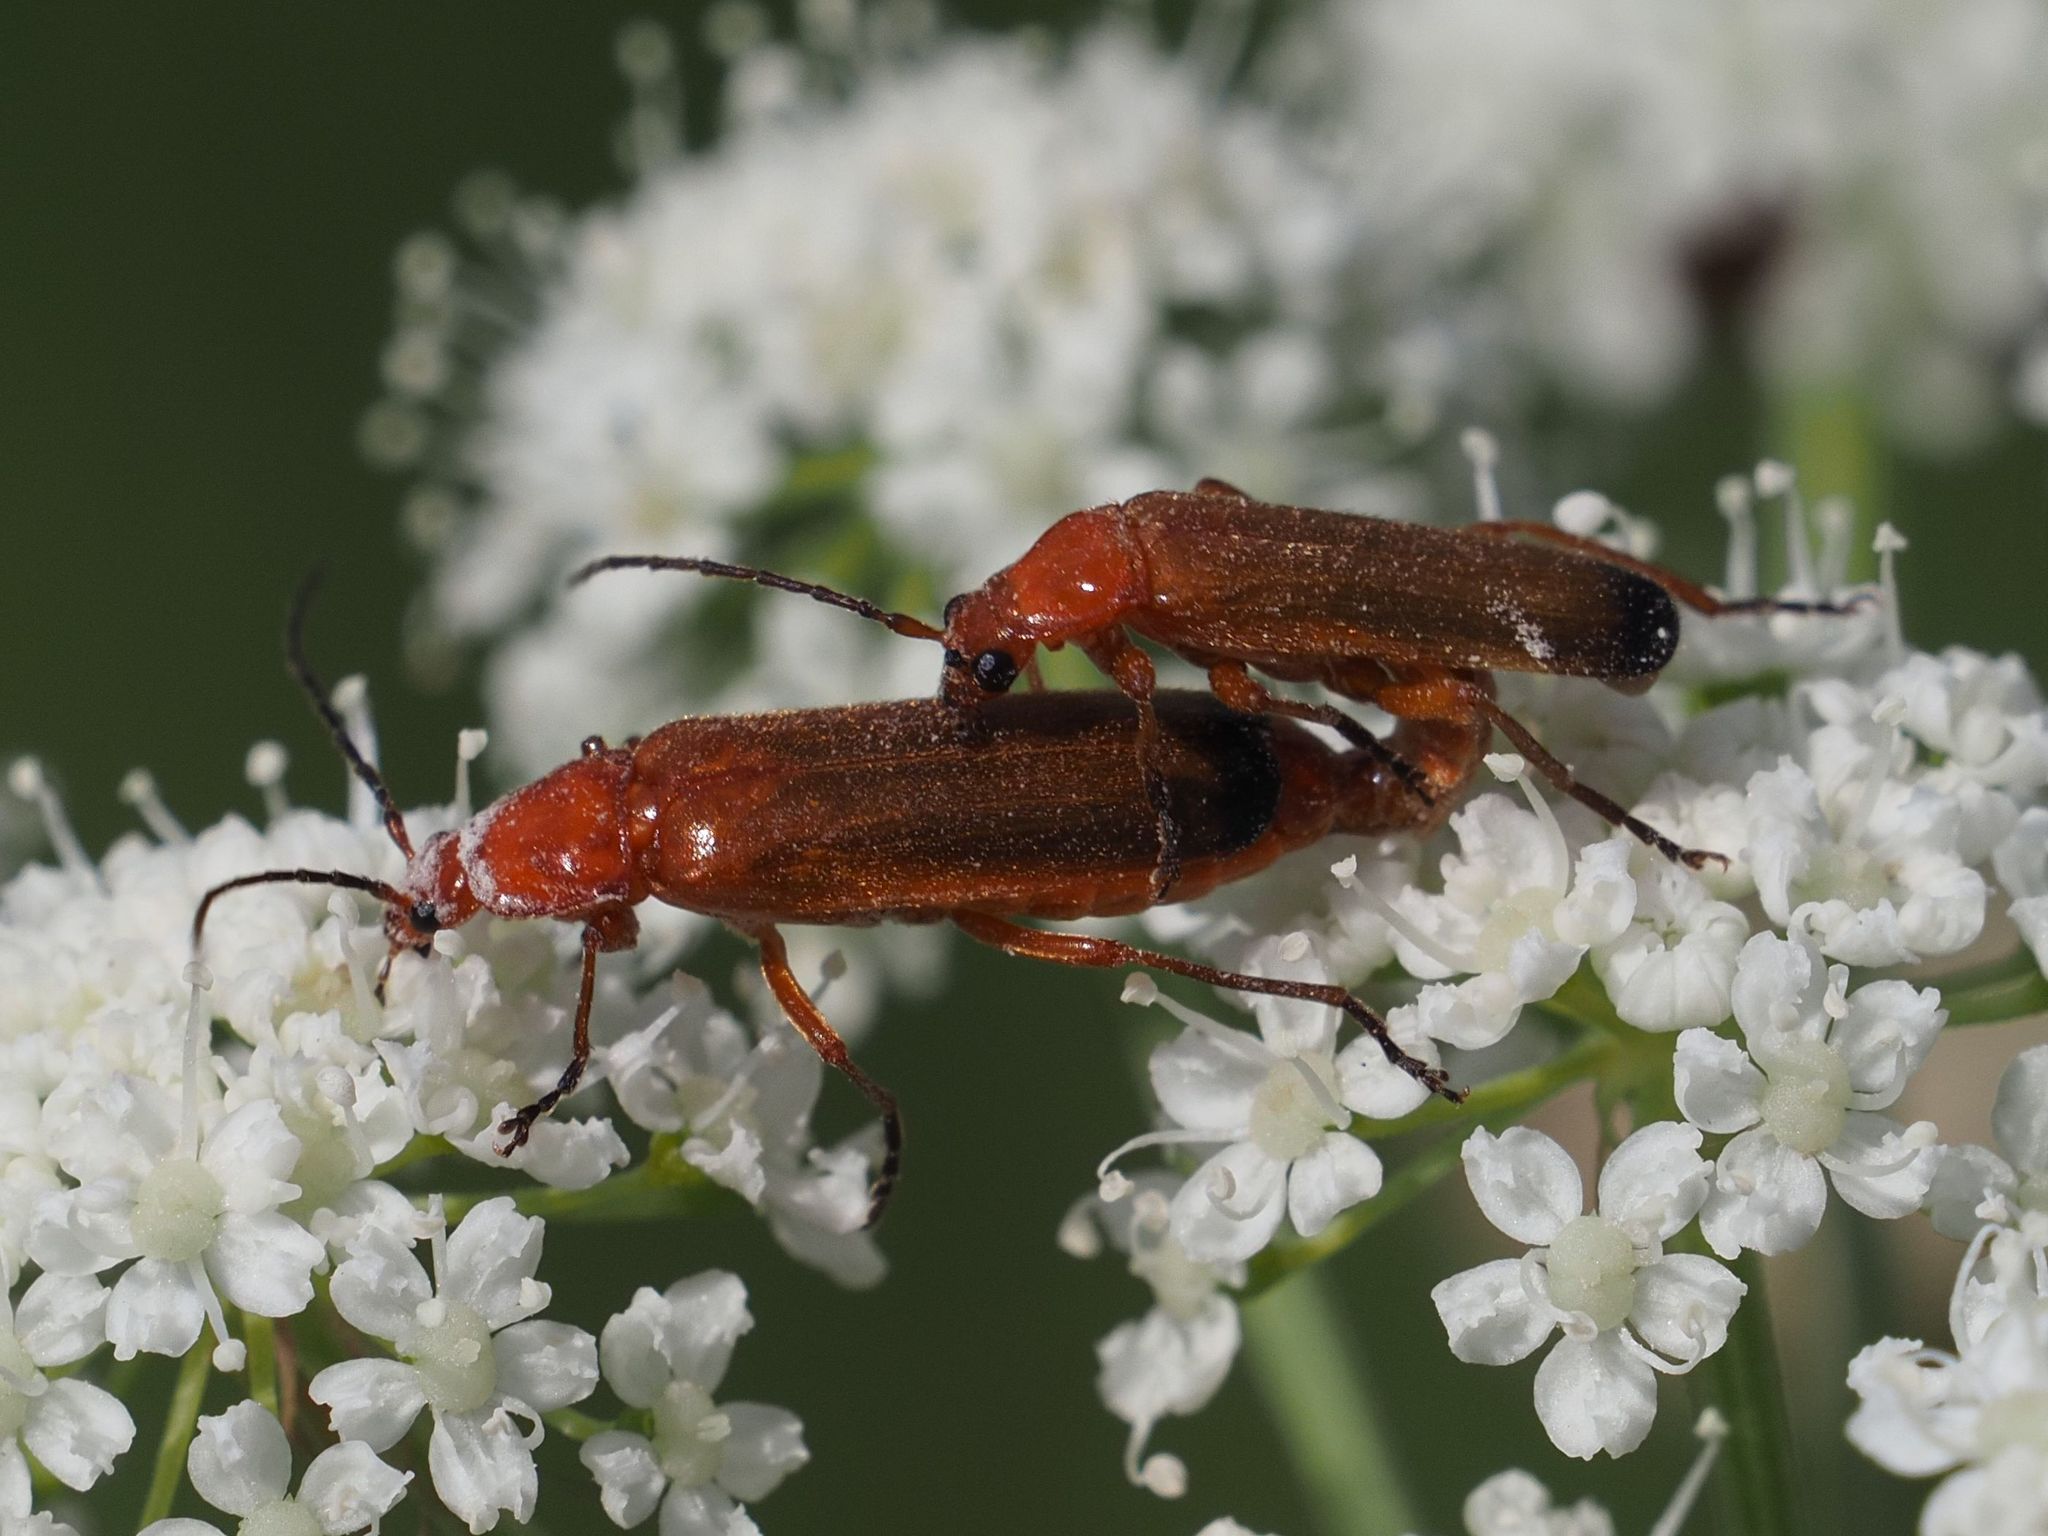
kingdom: Animalia
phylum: Arthropoda
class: Insecta
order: Coleoptera
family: Cantharidae
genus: Rhagonycha
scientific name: Rhagonycha fulva
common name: Common red soldier beetle
